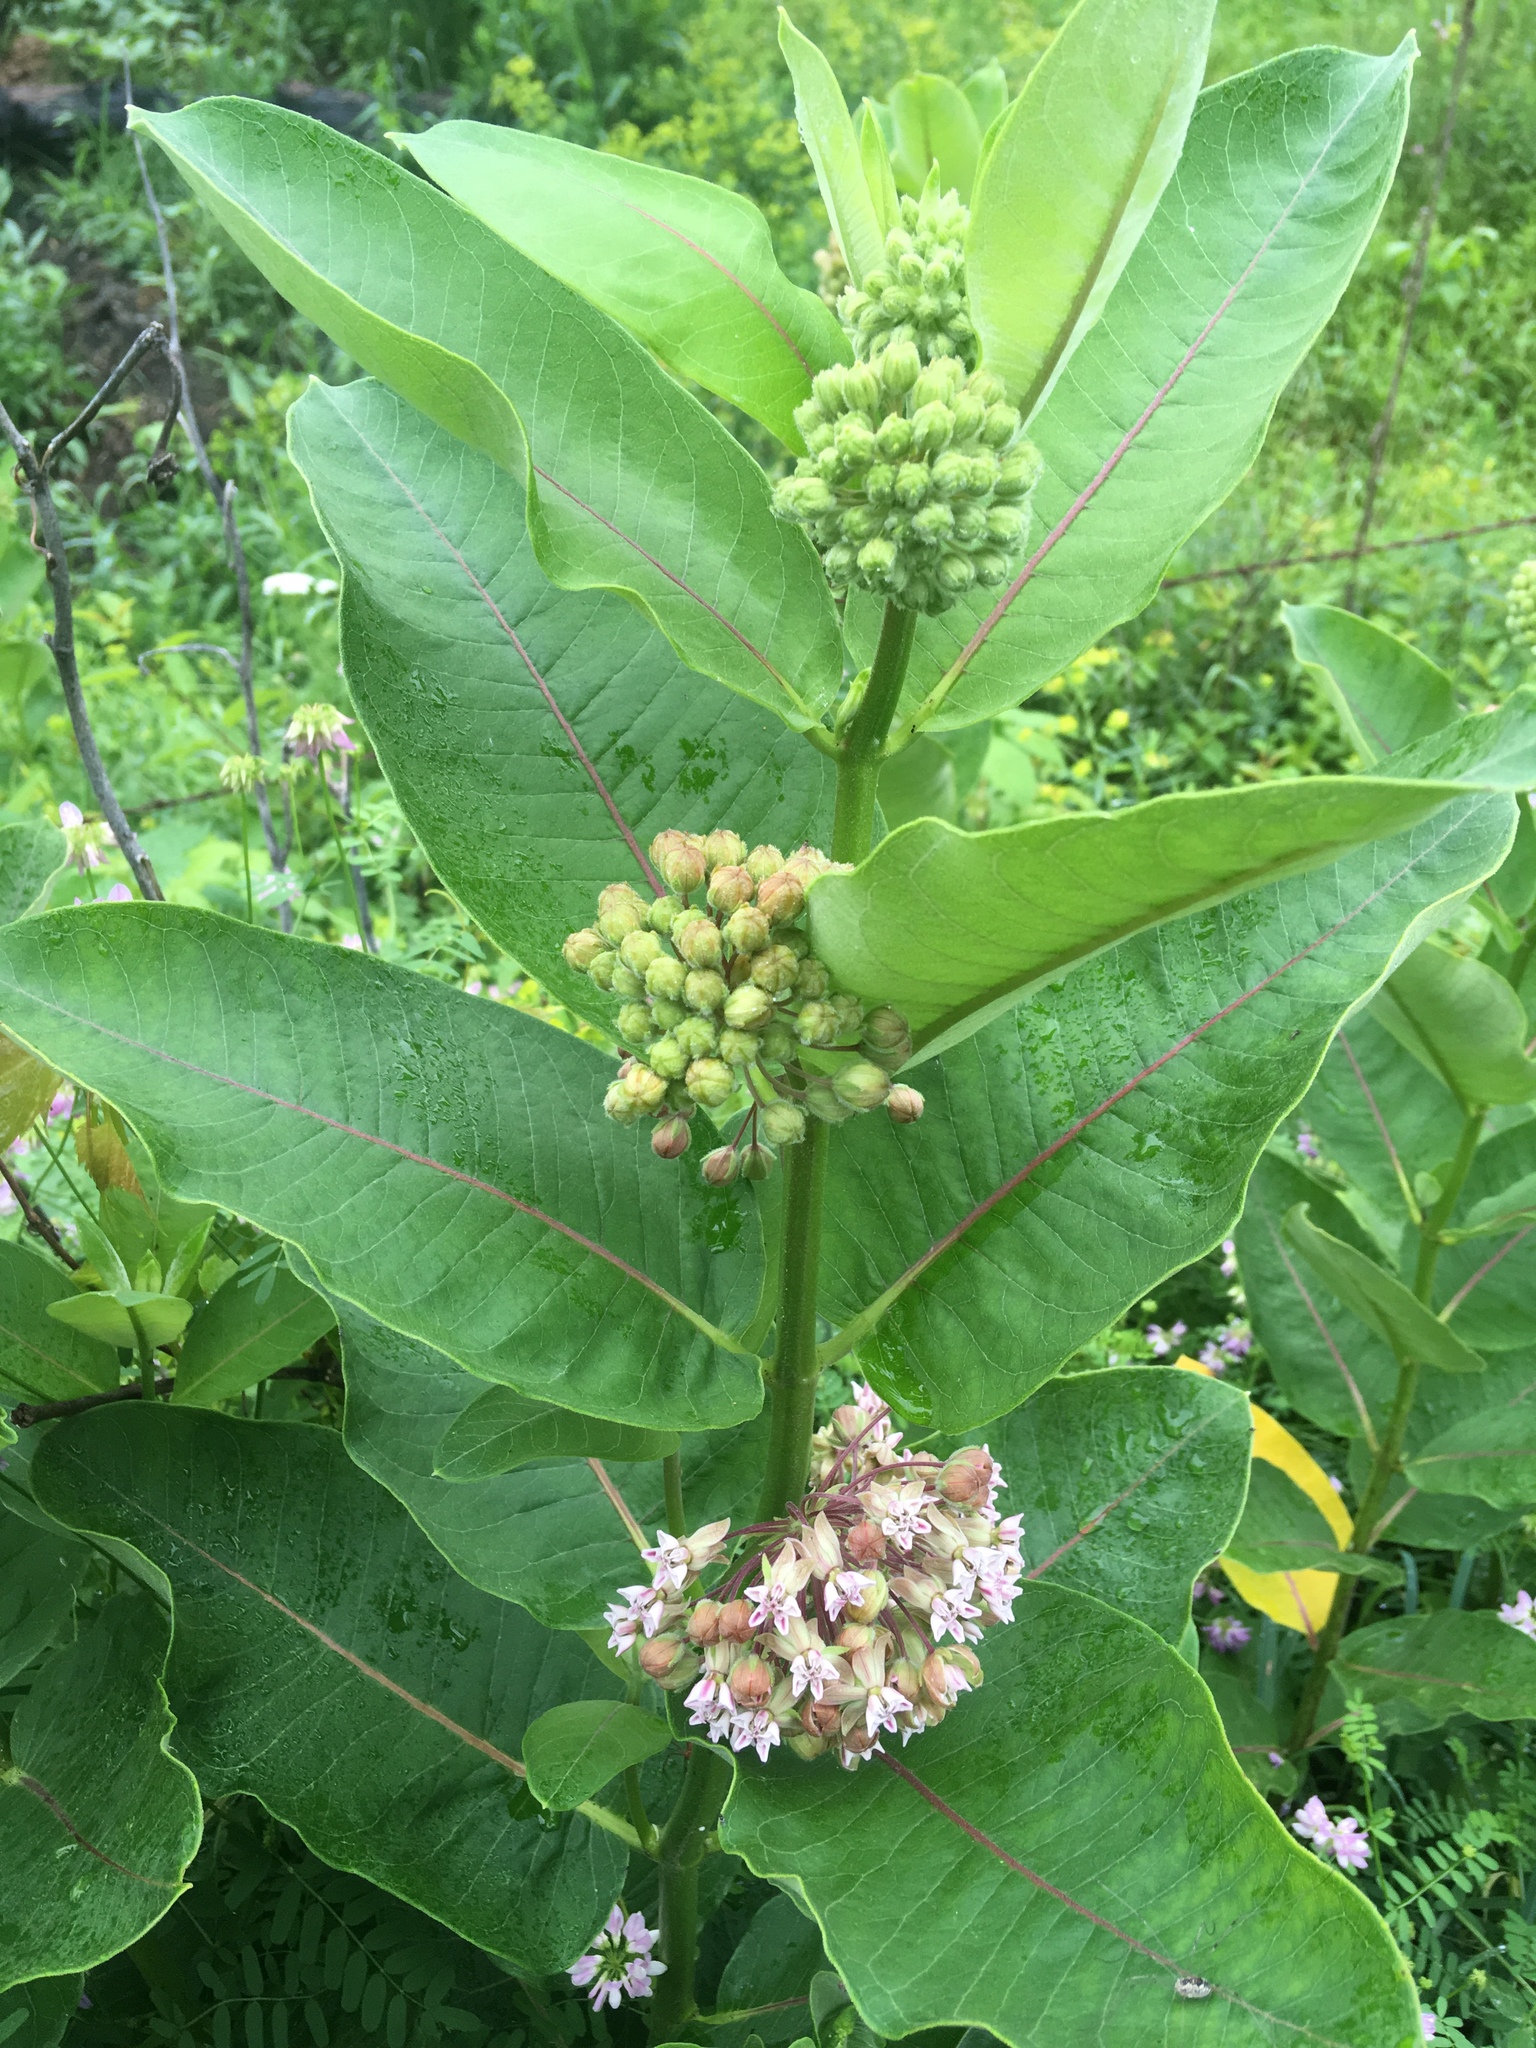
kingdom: Plantae
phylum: Tracheophyta
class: Magnoliopsida
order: Gentianales
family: Apocynaceae
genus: Asclepias
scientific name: Asclepias syriaca
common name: Common milkweed
